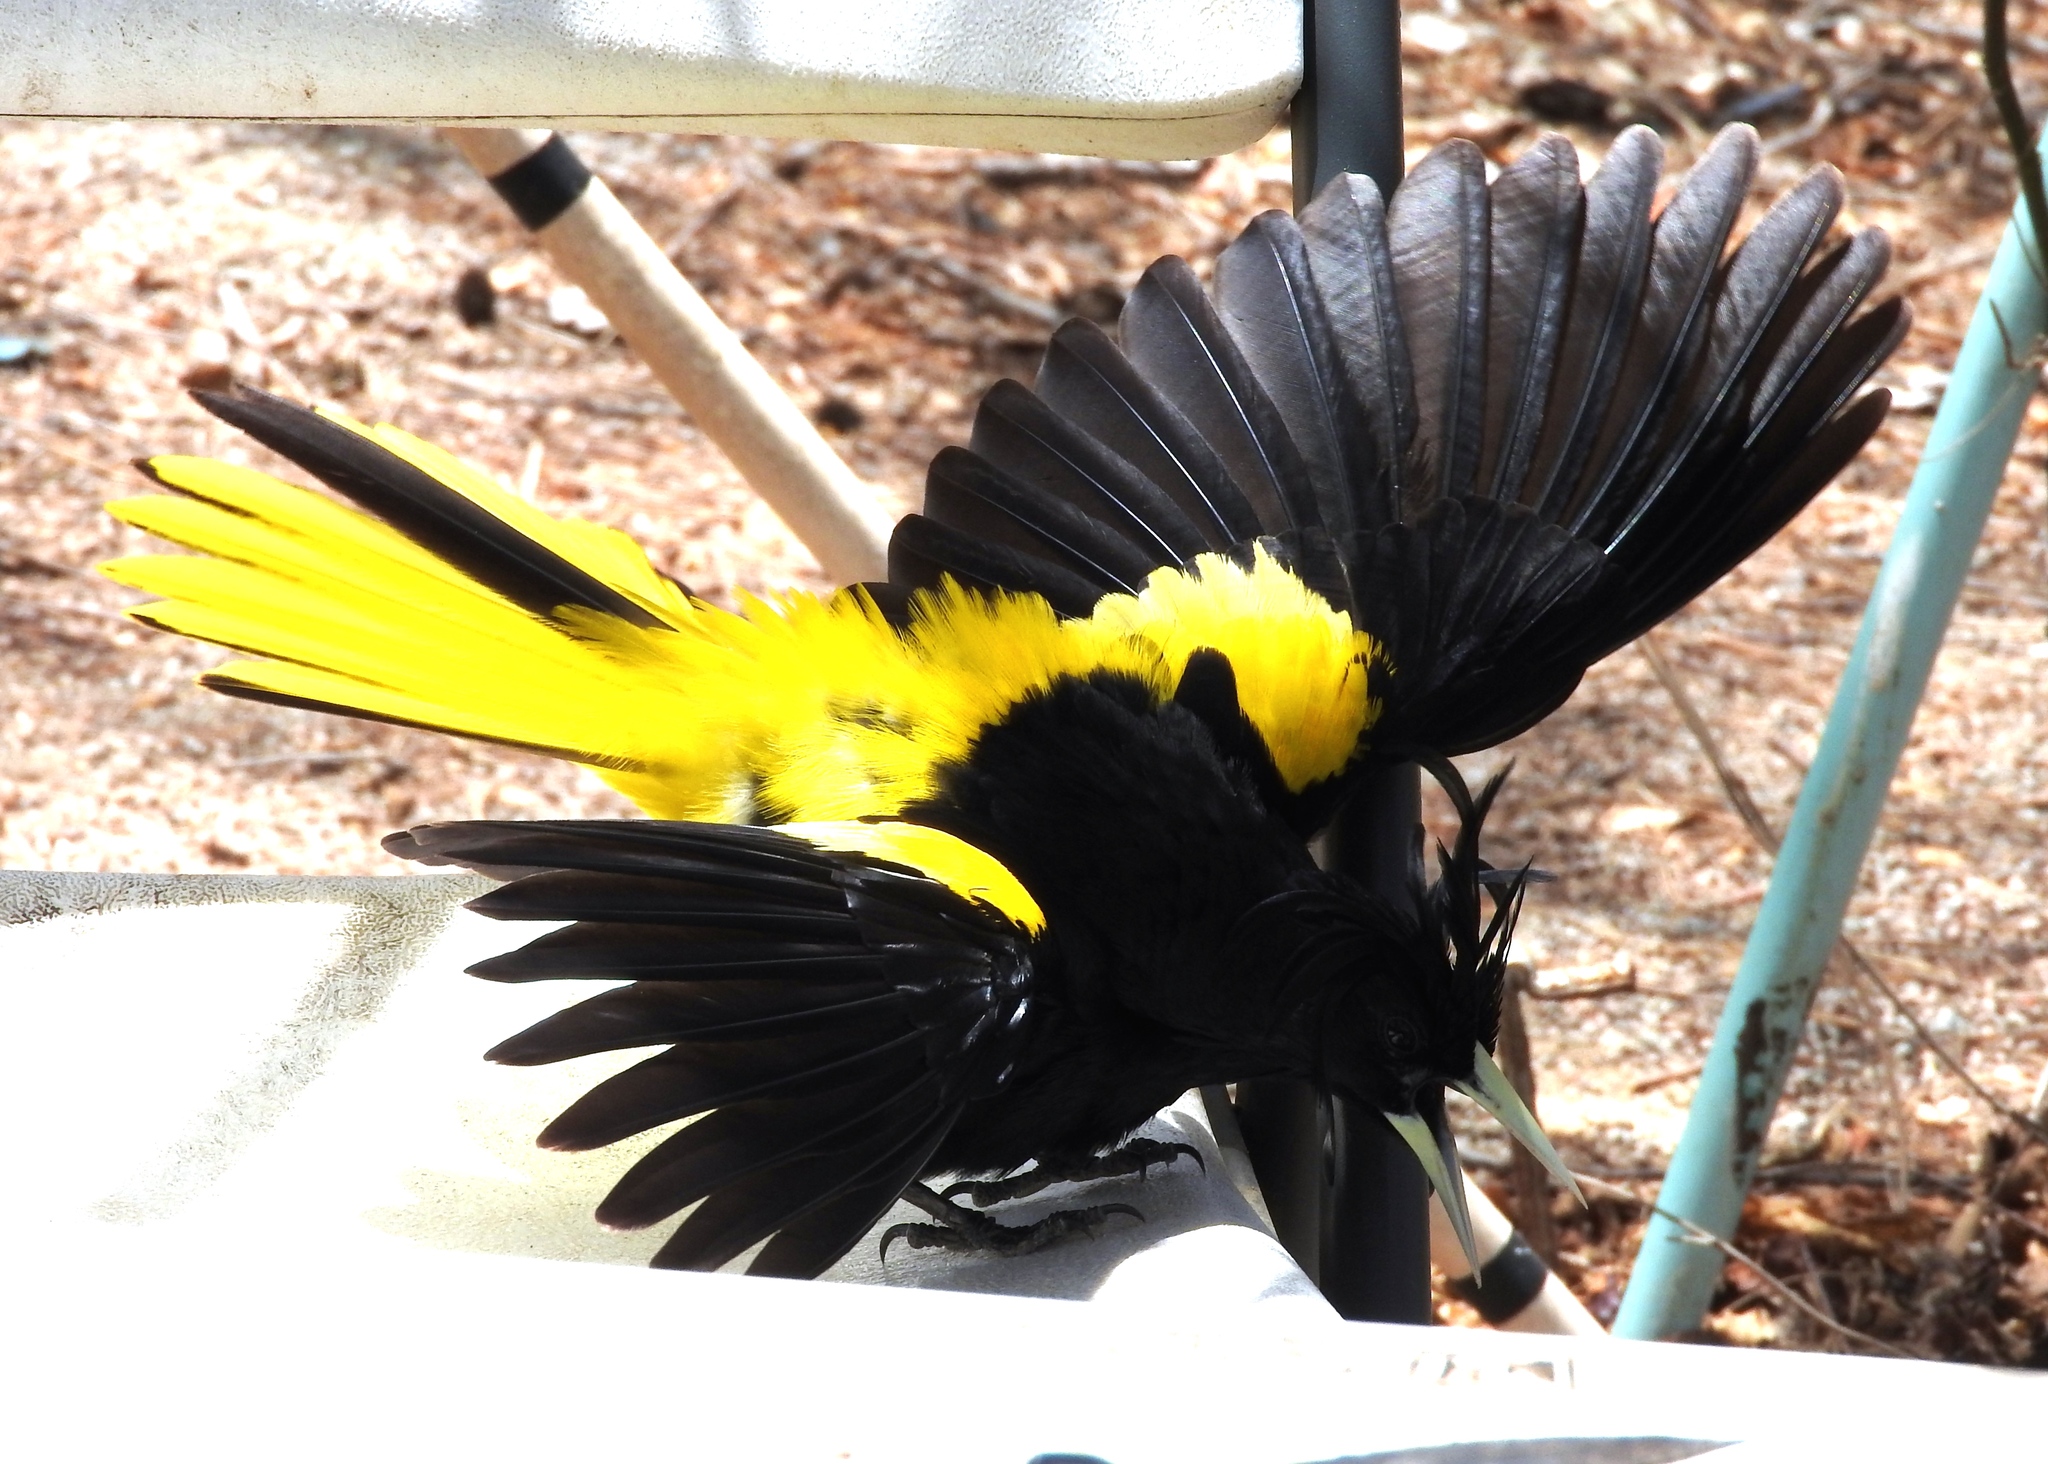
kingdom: Animalia
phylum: Chordata
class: Aves
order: Passeriformes
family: Icteridae
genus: Cacicus
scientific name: Cacicus melanicterus
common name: Yellow-winged cacique
